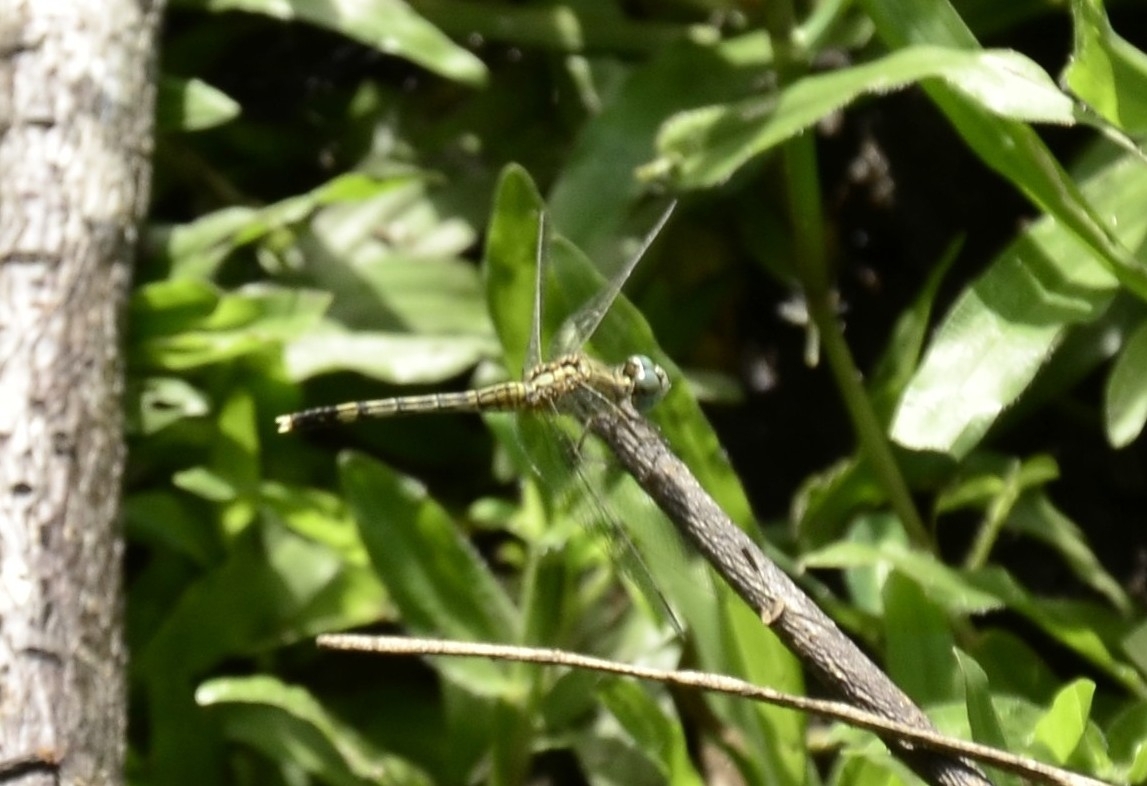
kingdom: Animalia
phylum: Arthropoda
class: Insecta
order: Odonata
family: Libellulidae
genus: Diplacodes
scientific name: Diplacodes trivialis
